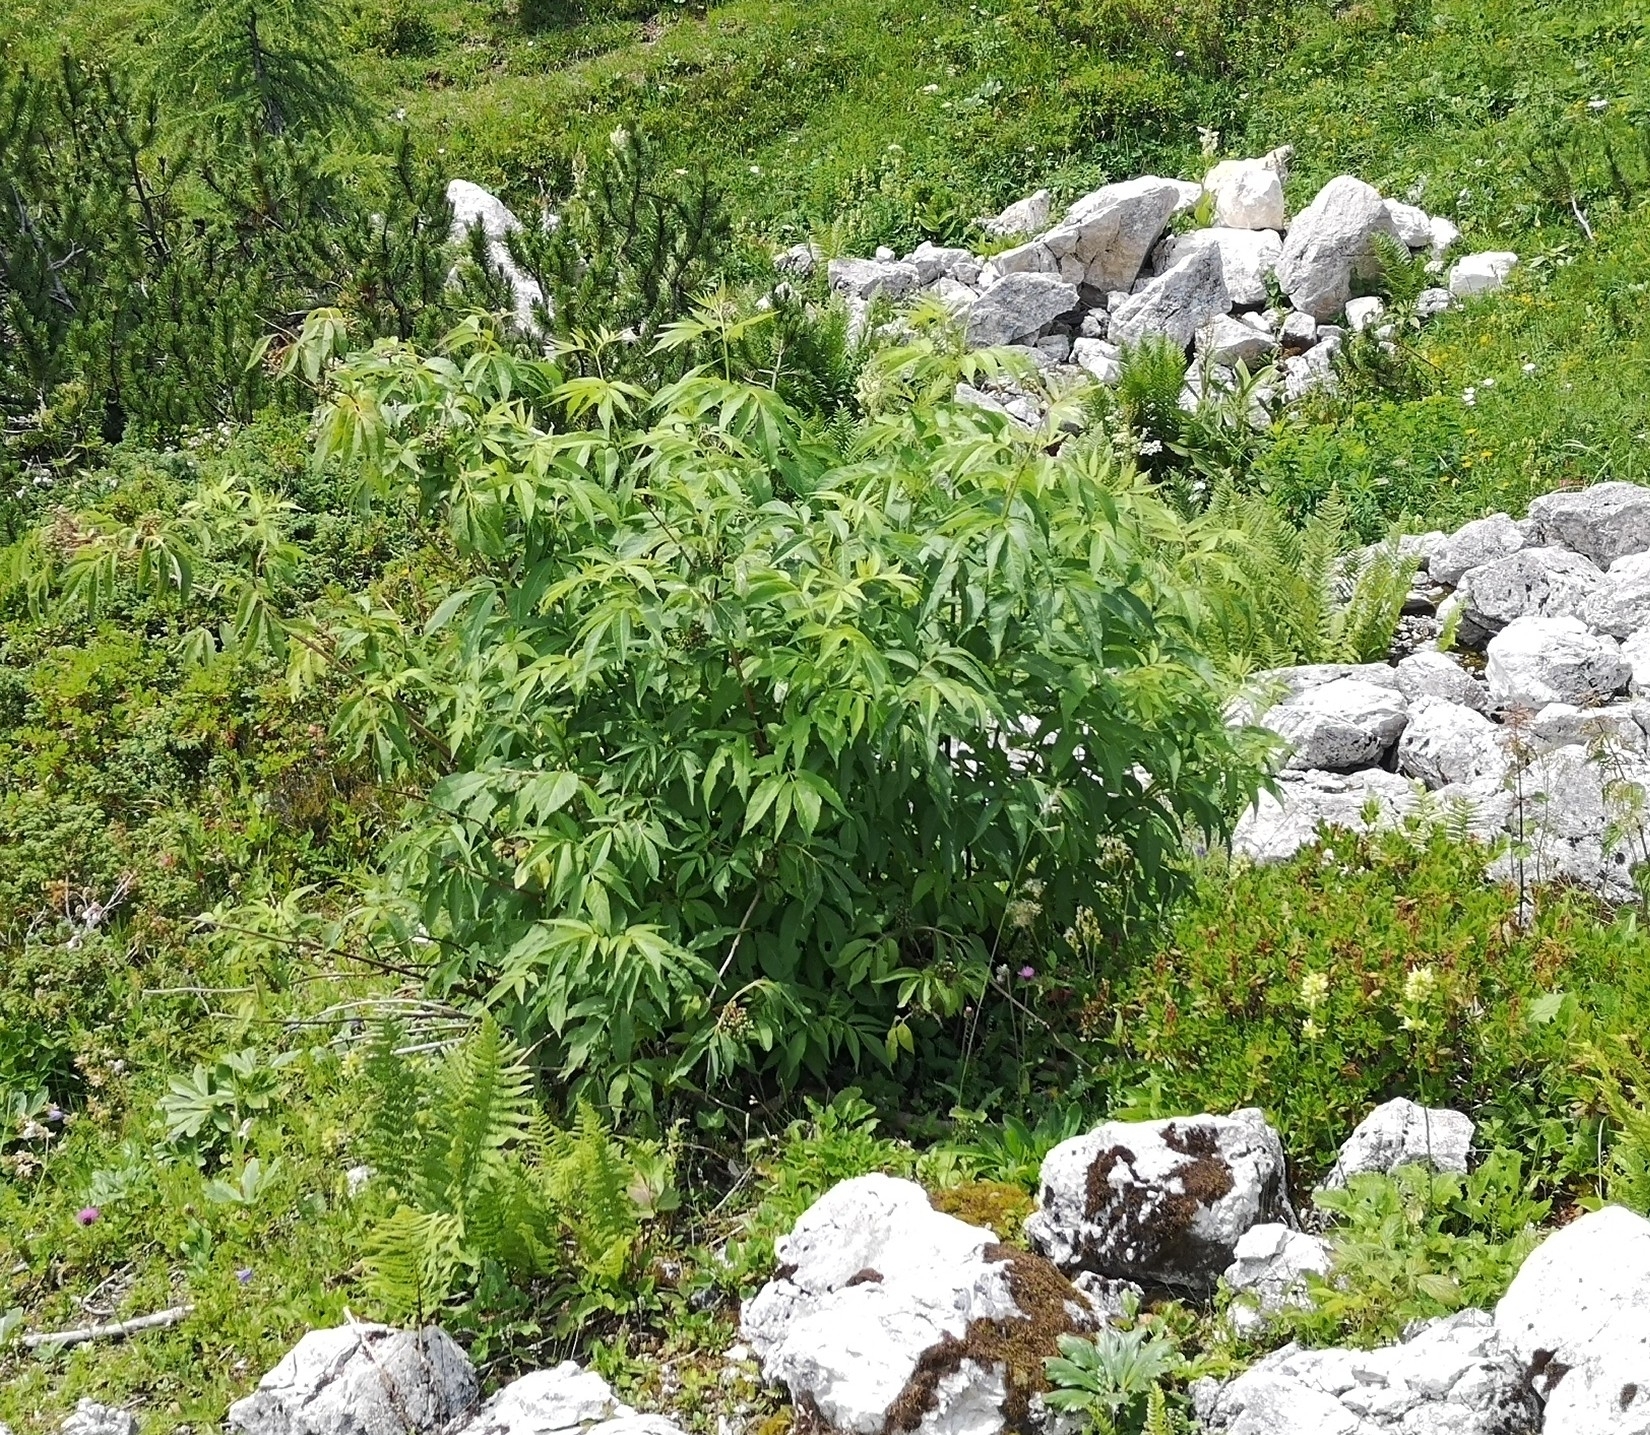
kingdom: Plantae
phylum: Tracheophyta
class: Magnoliopsida
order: Dipsacales
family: Viburnaceae
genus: Sambucus
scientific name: Sambucus racemosa
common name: Red-berried elder
